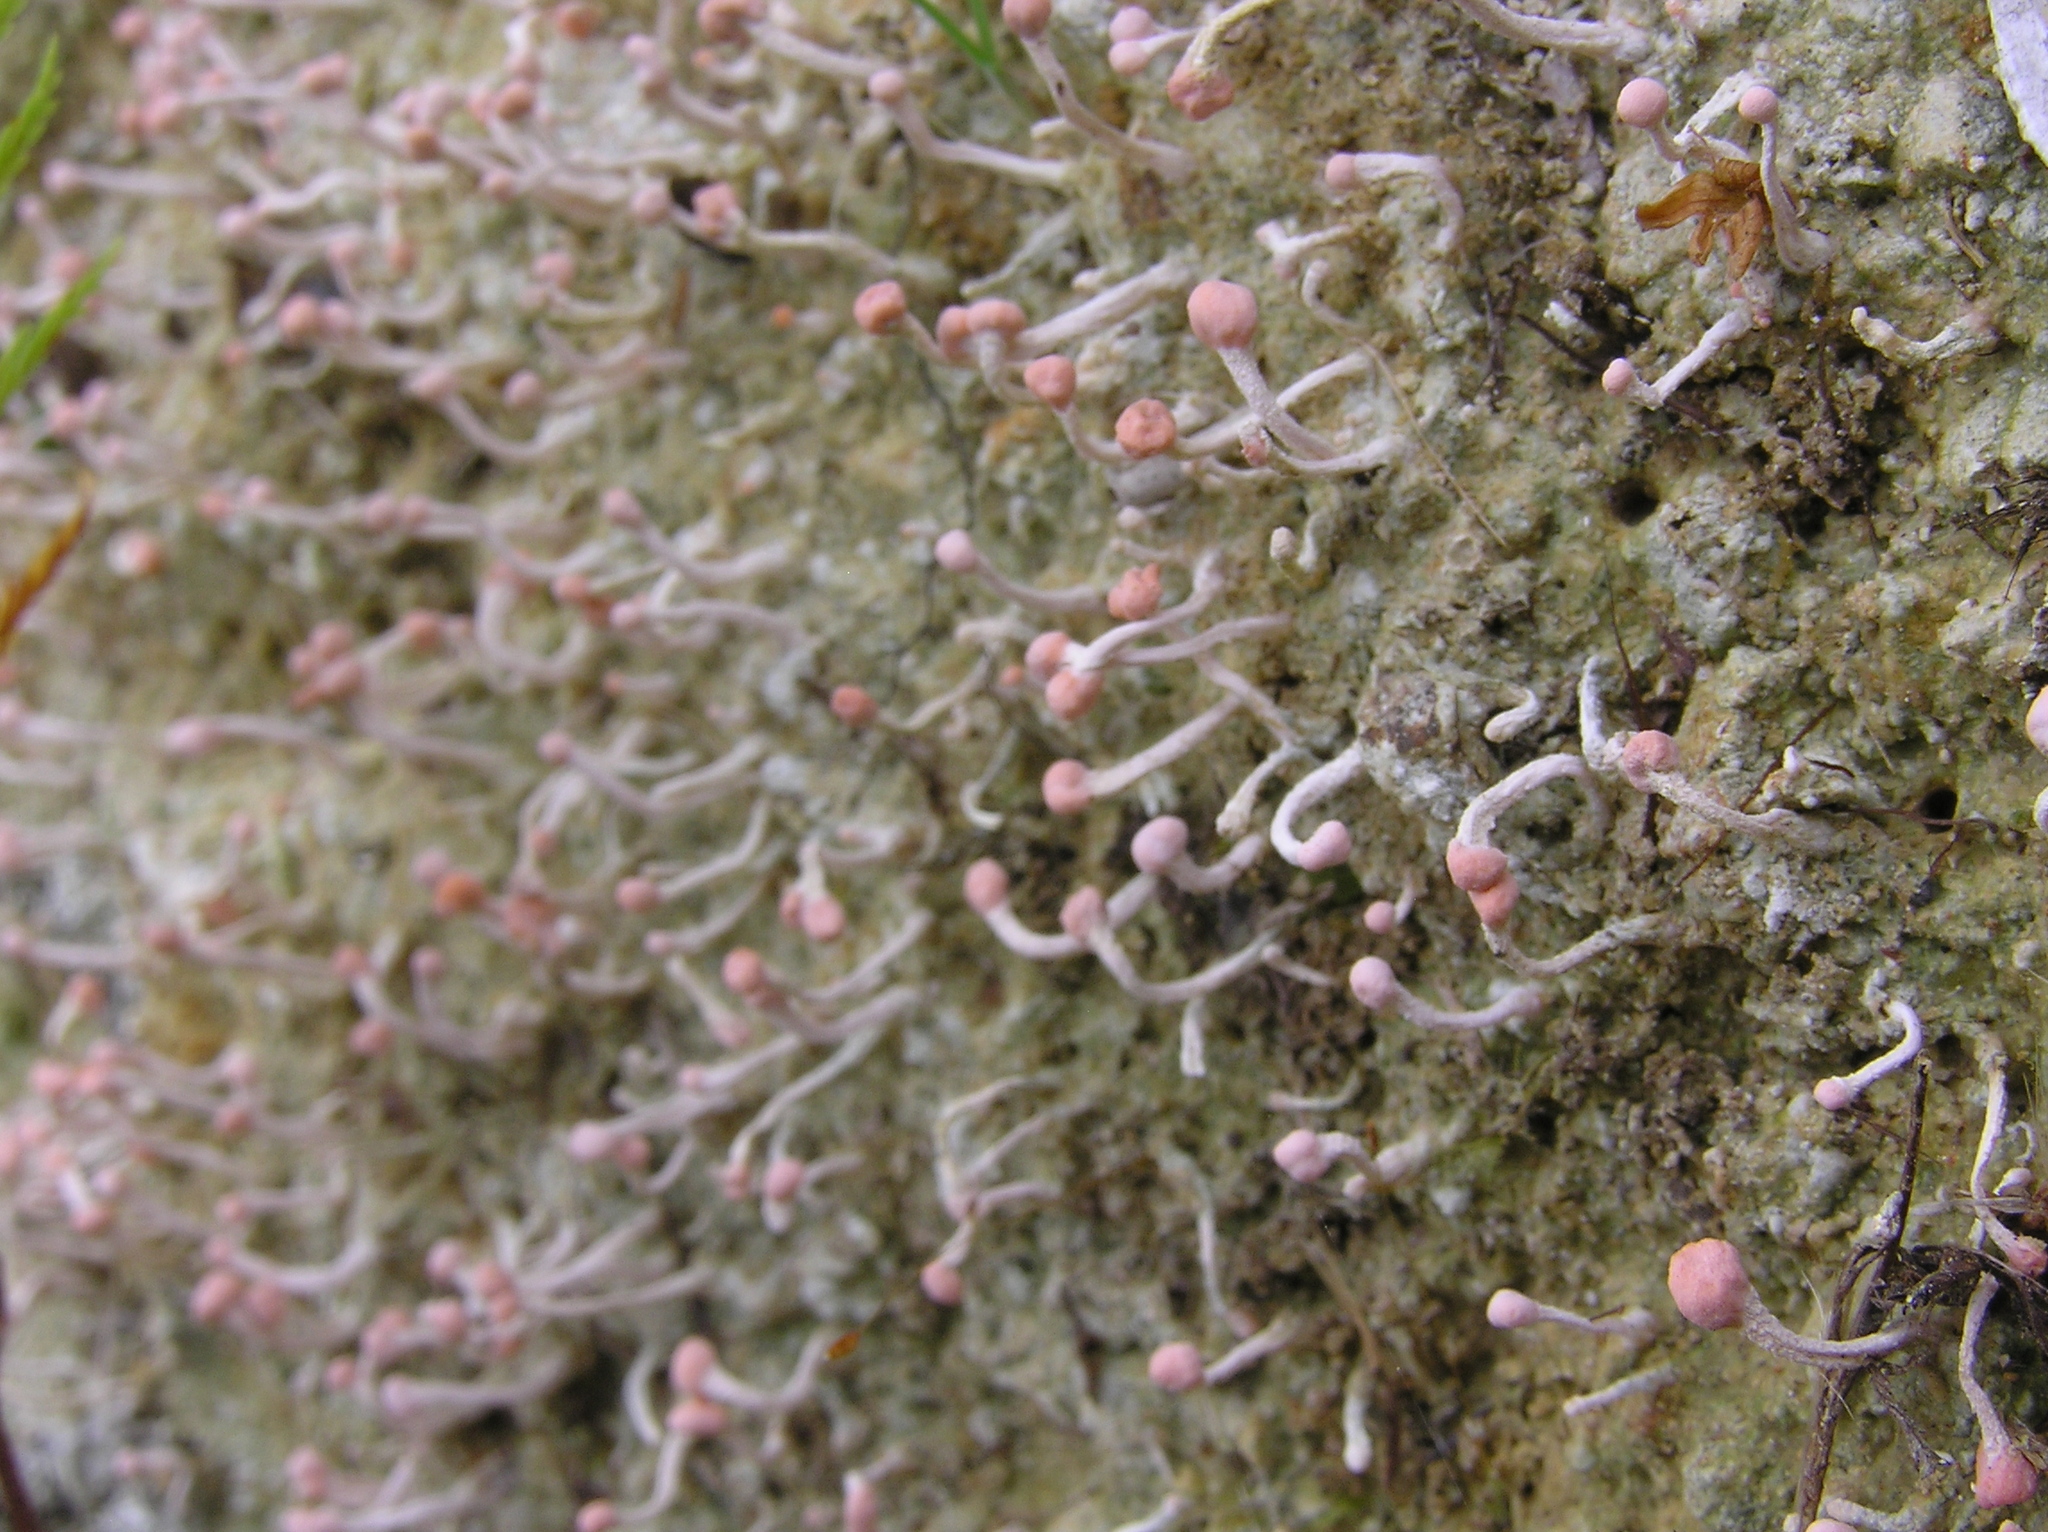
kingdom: Fungi
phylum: Ascomycota
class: Lecanoromycetes
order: Pertusariales
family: Icmadophilaceae
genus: Dibaeis
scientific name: Dibaeis arcuata
